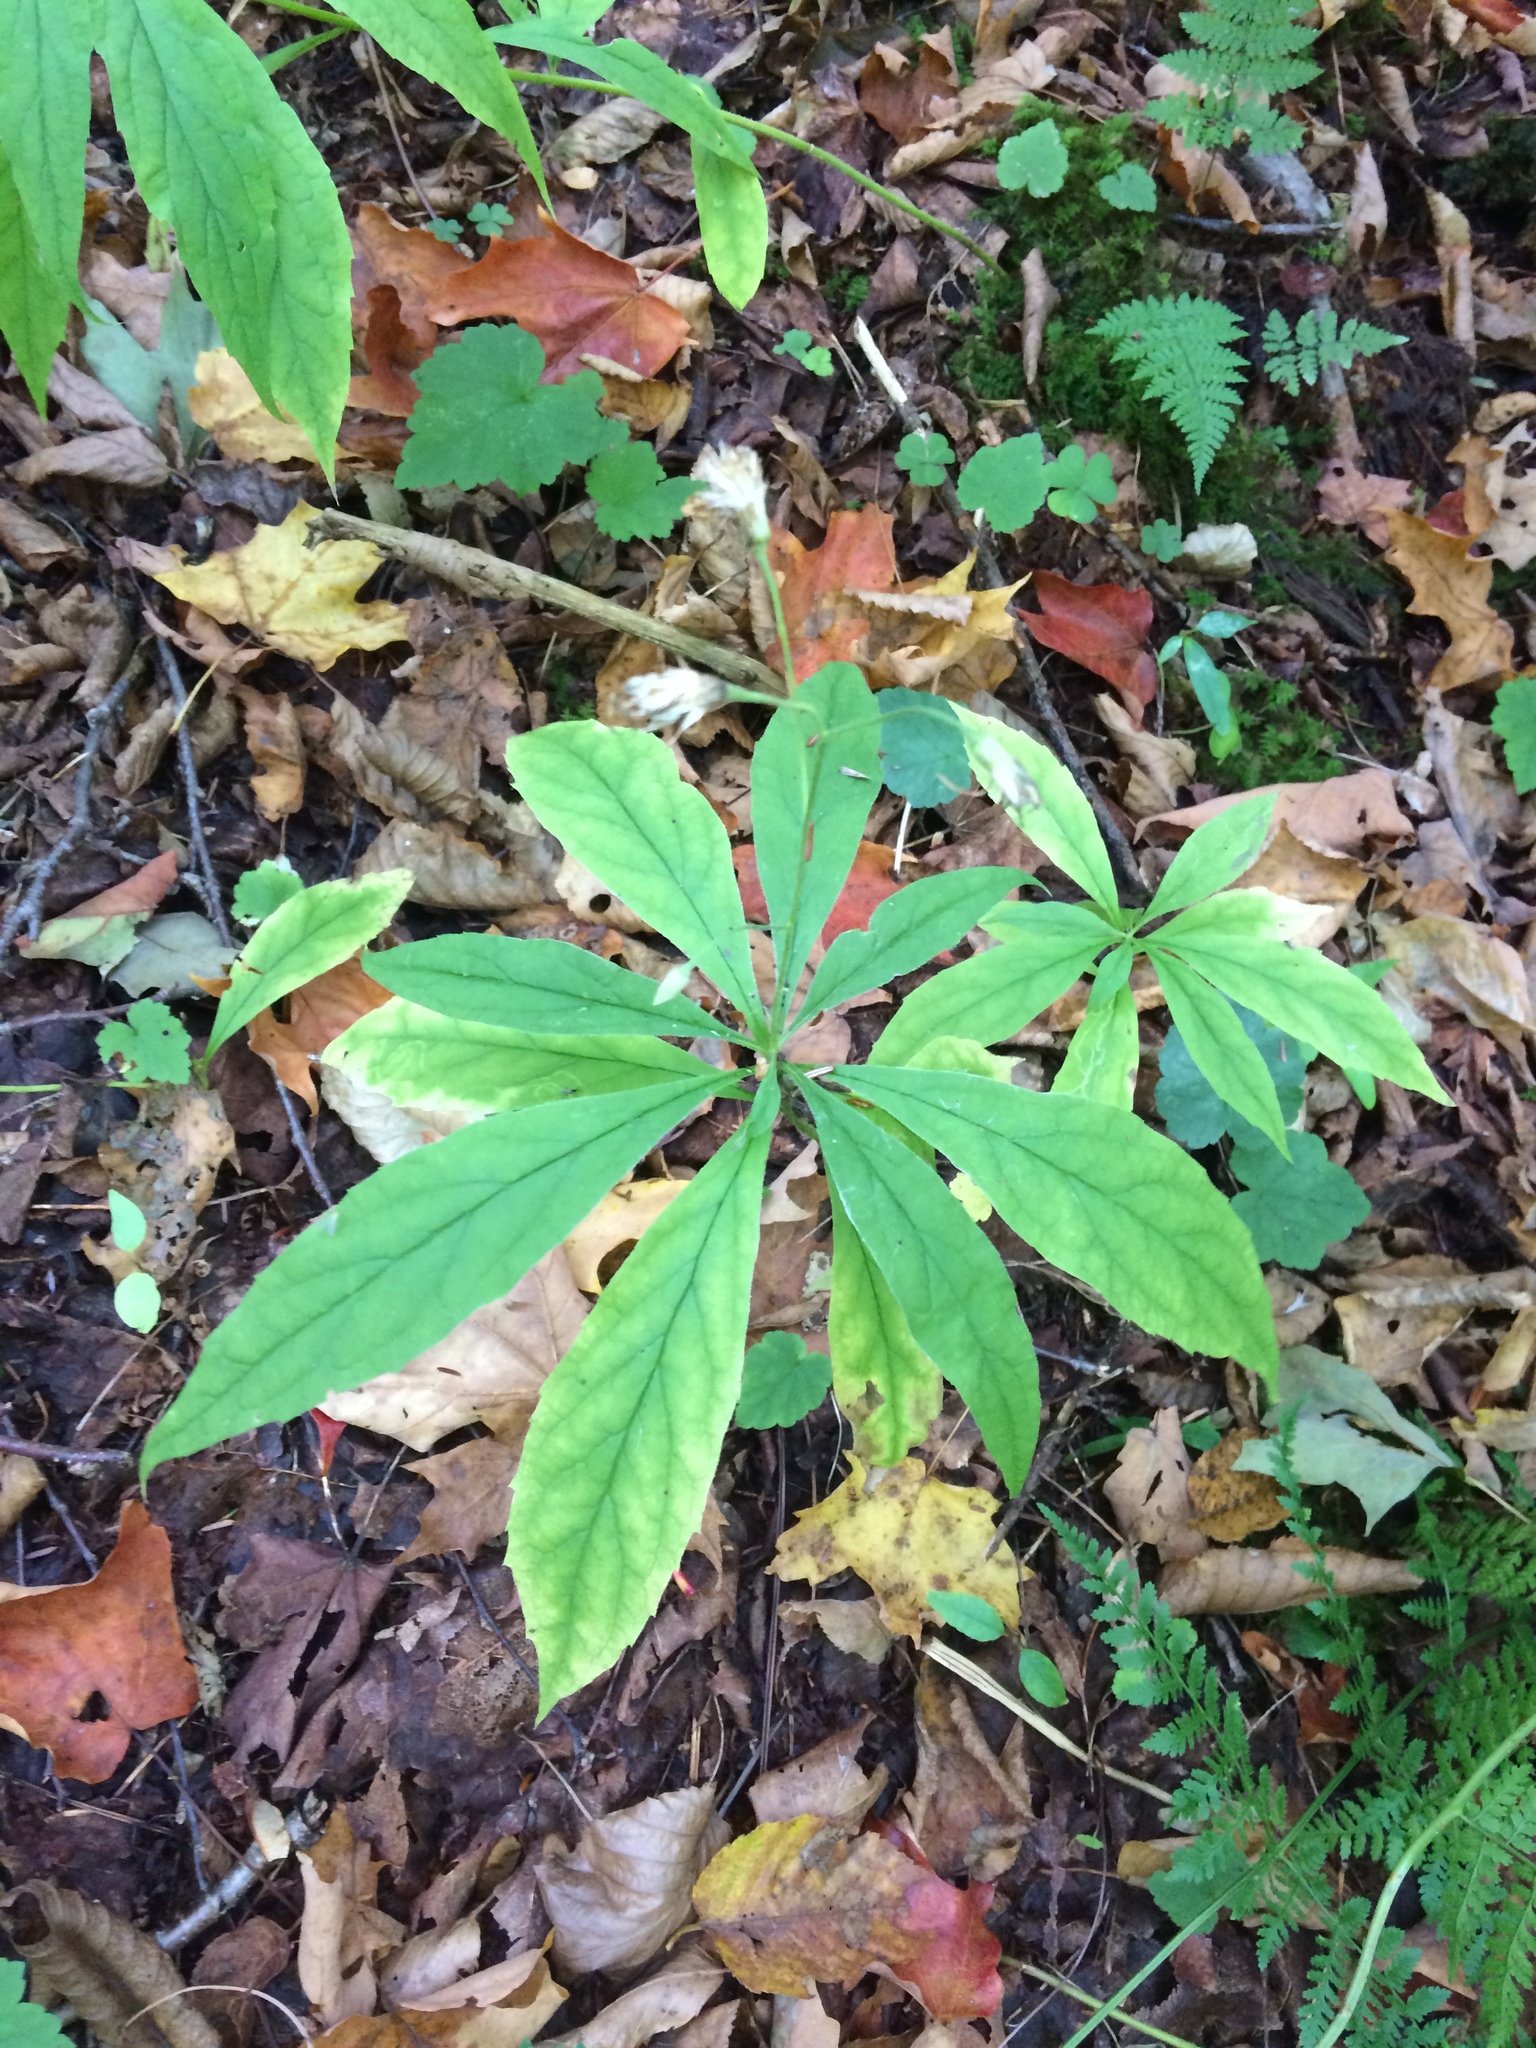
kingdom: Plantae
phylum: Tracheophyta
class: Magnoliopsida
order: Asterales
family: Asteraceae
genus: Oclemena
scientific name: Oclemena acuminata
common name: Mountain aster
